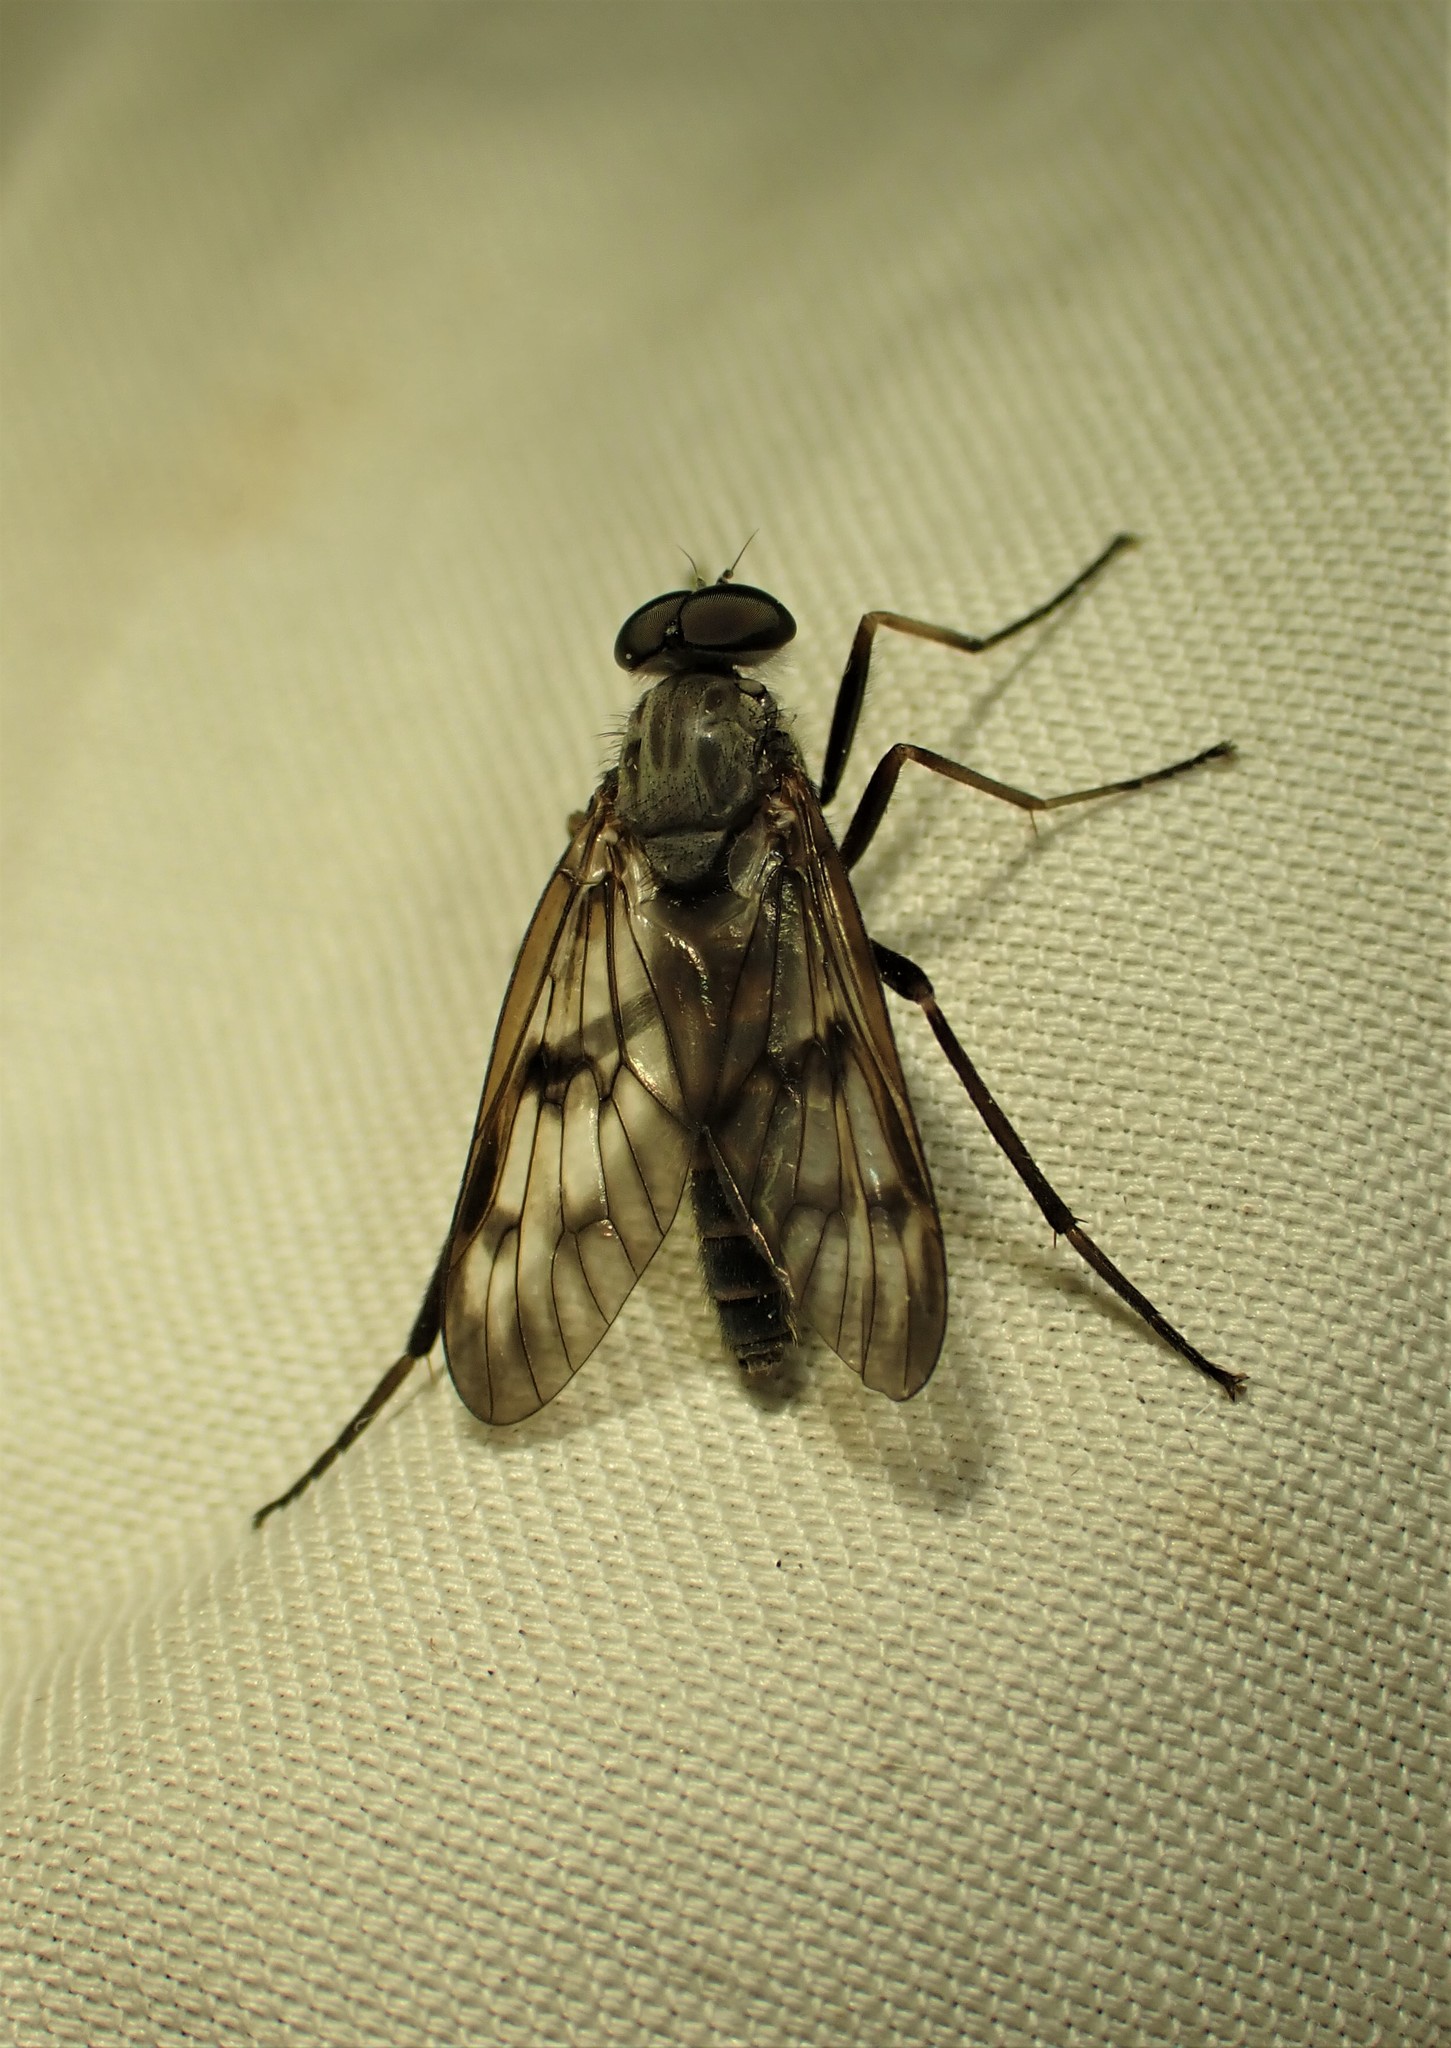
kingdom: Animalia
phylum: Arthropoda
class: Insecta
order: Diptera
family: Rhagionidae
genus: Rhagio
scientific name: Rhagio mystaceus
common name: Common snipe fly
